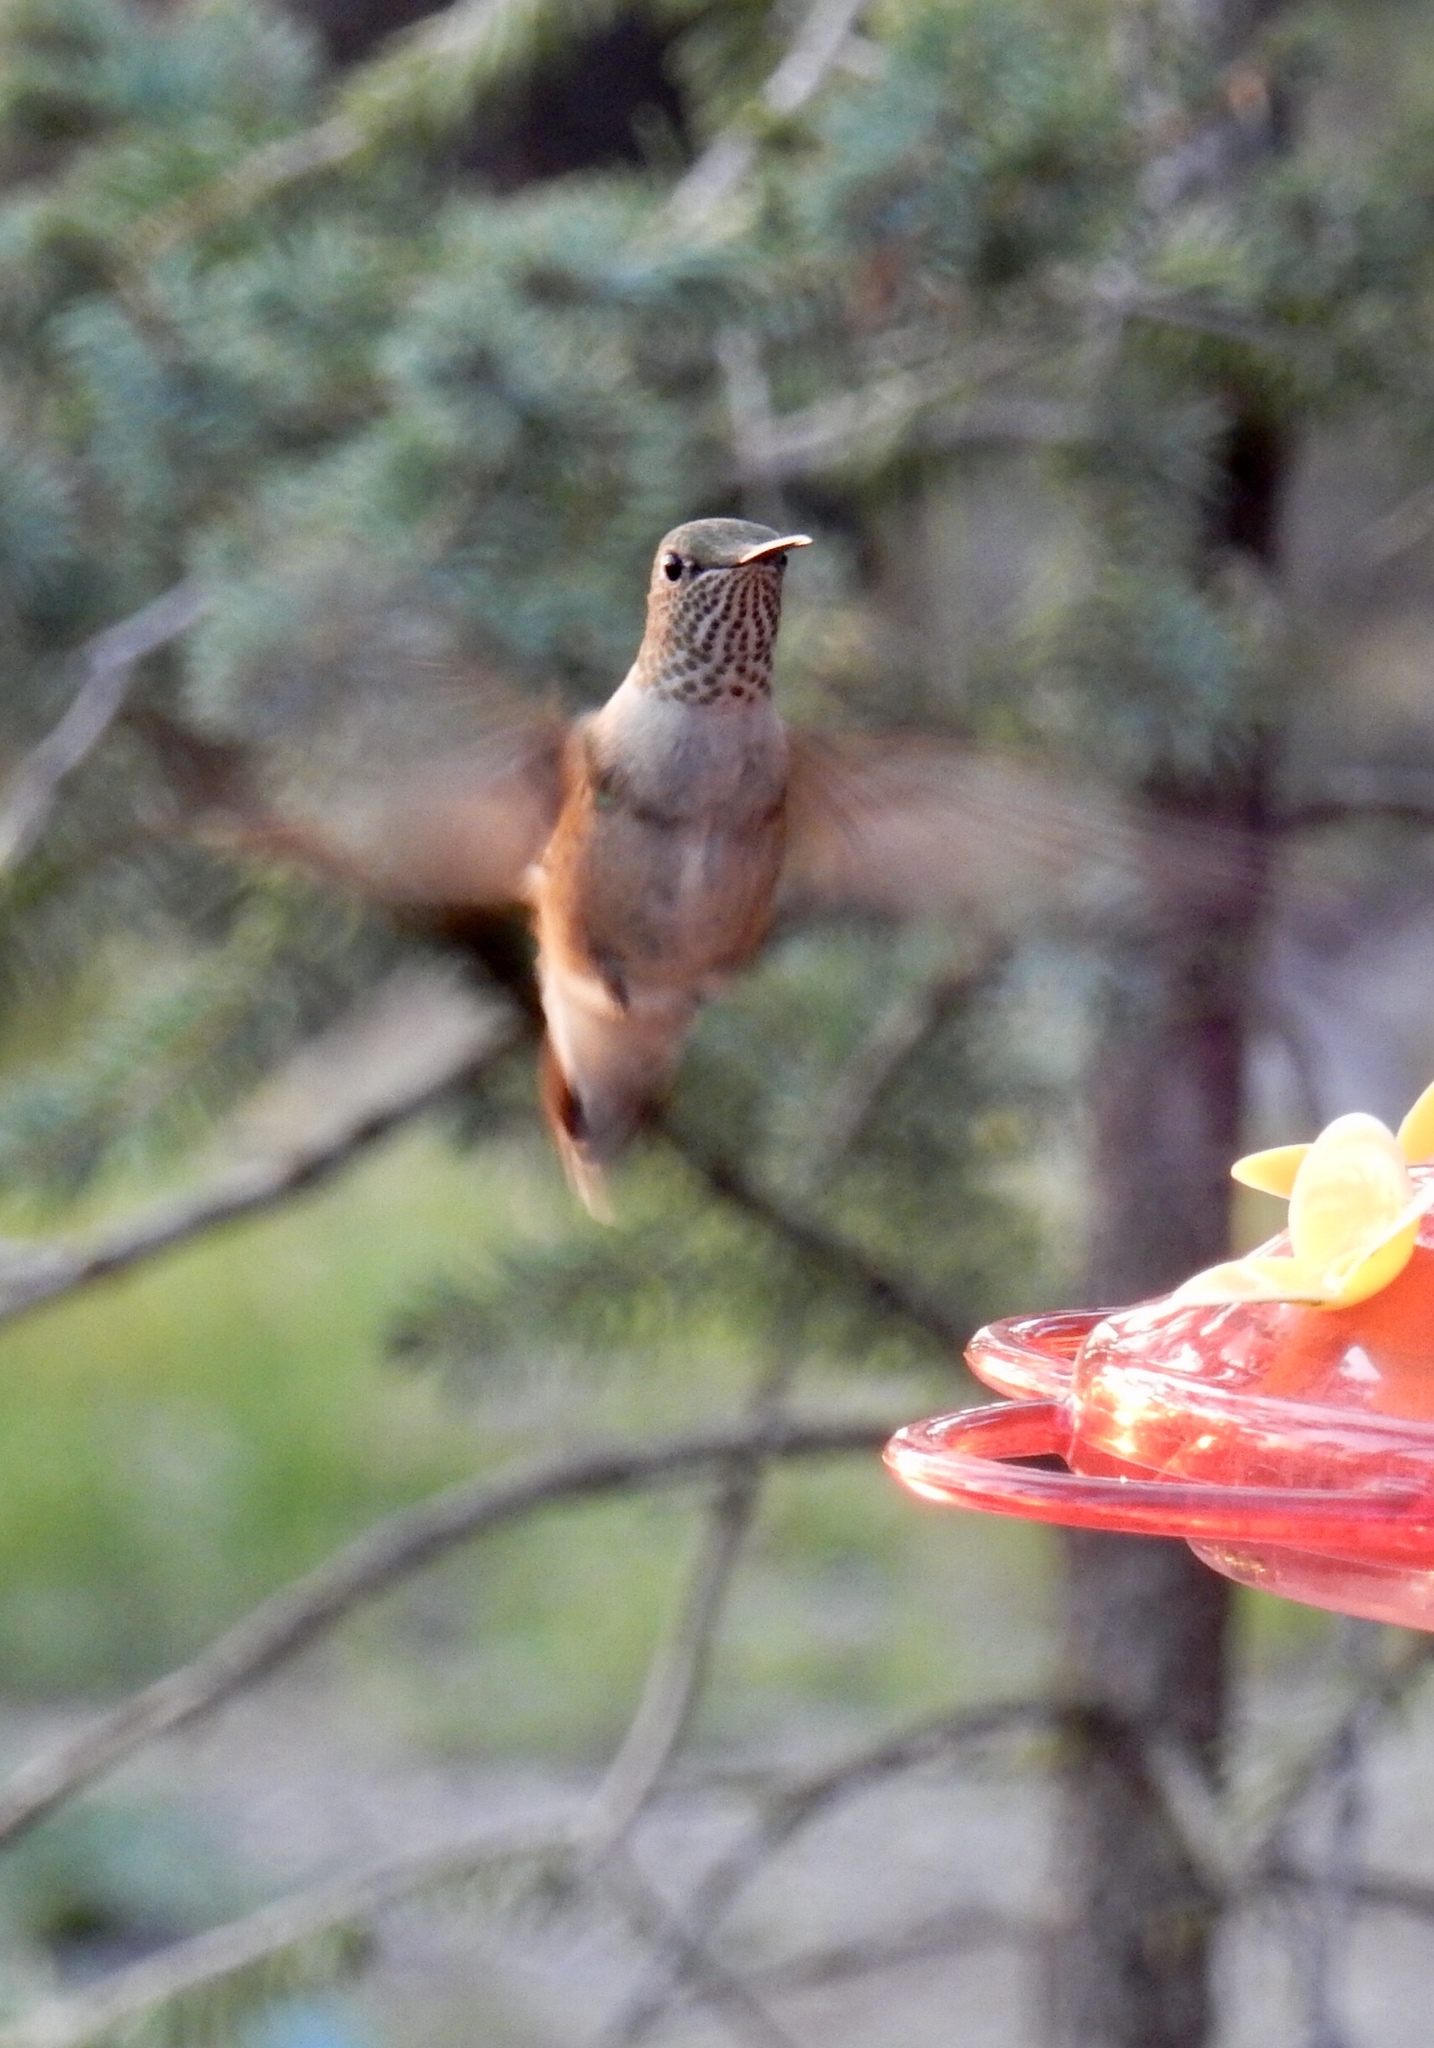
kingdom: Animalia
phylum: Chordata
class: Aves
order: Apodiformes
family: Trochilidae
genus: Selasphorus
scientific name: Selasphorus rufus
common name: Rufous hummingbird
